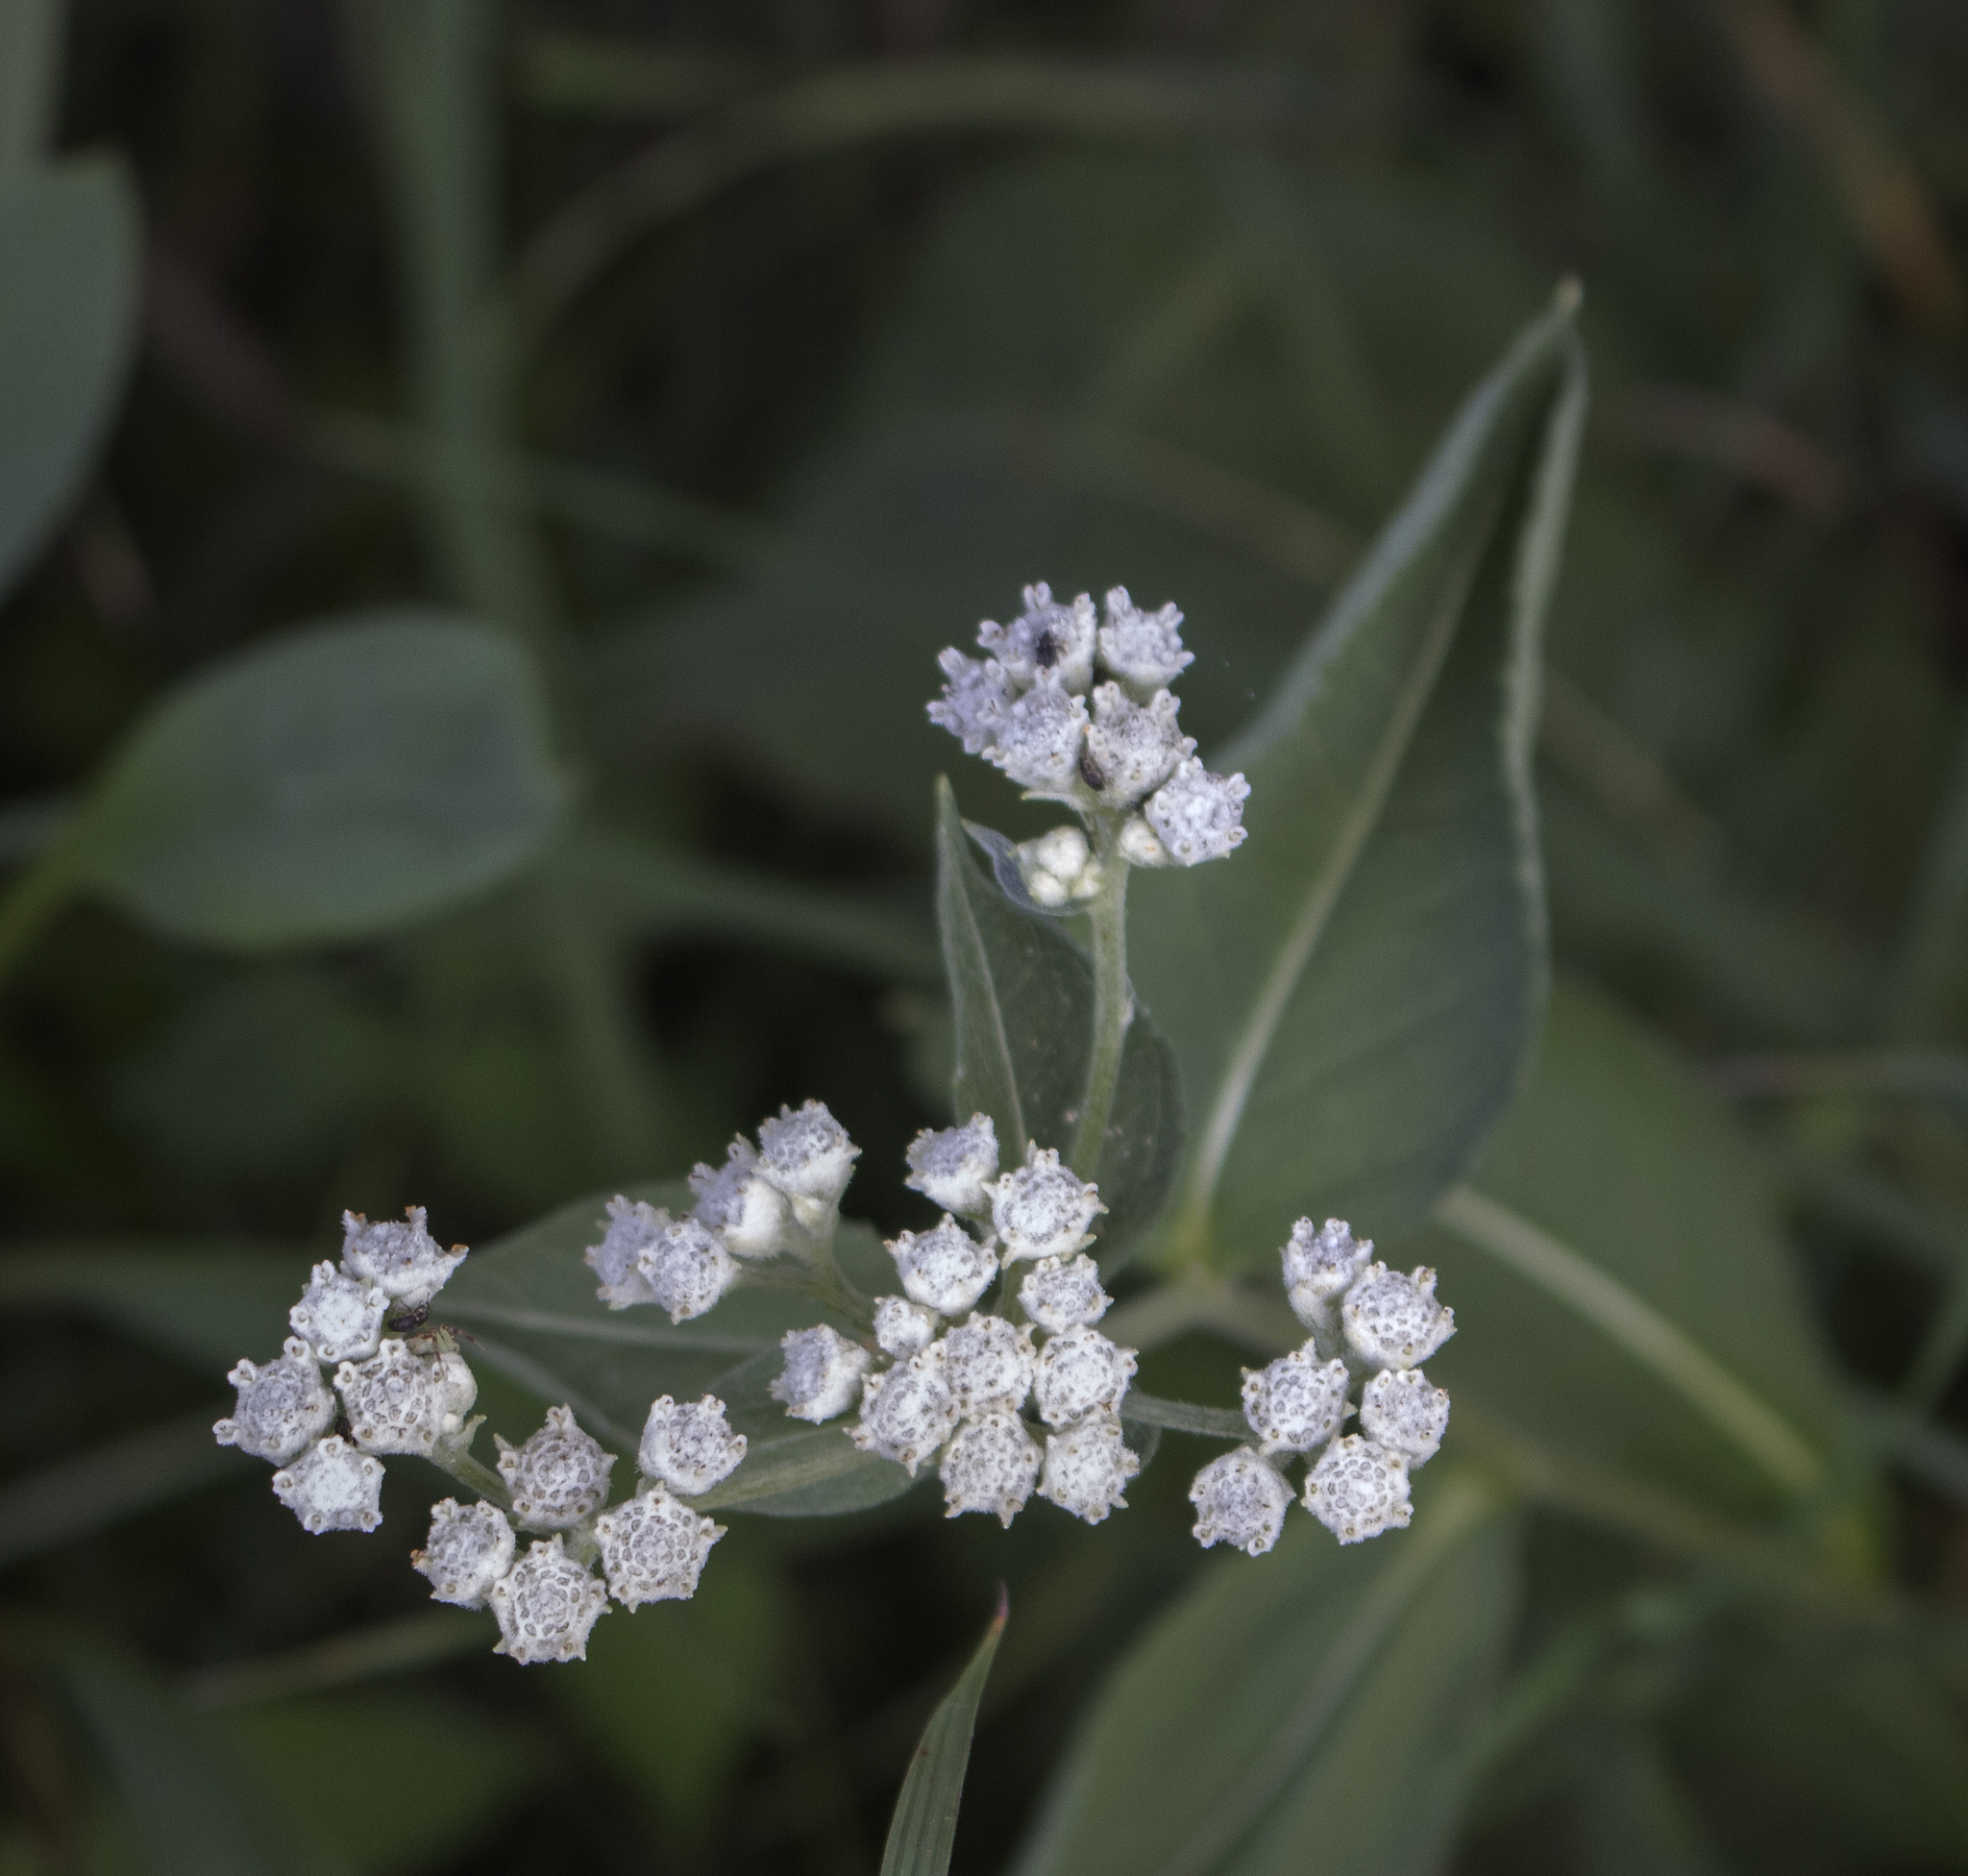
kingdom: Plantae
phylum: Tracheophyta
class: Magnoliopsida
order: Asterales
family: Asteraceae
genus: Parthenium
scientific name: Parthenium integrifolium
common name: American feverfew
